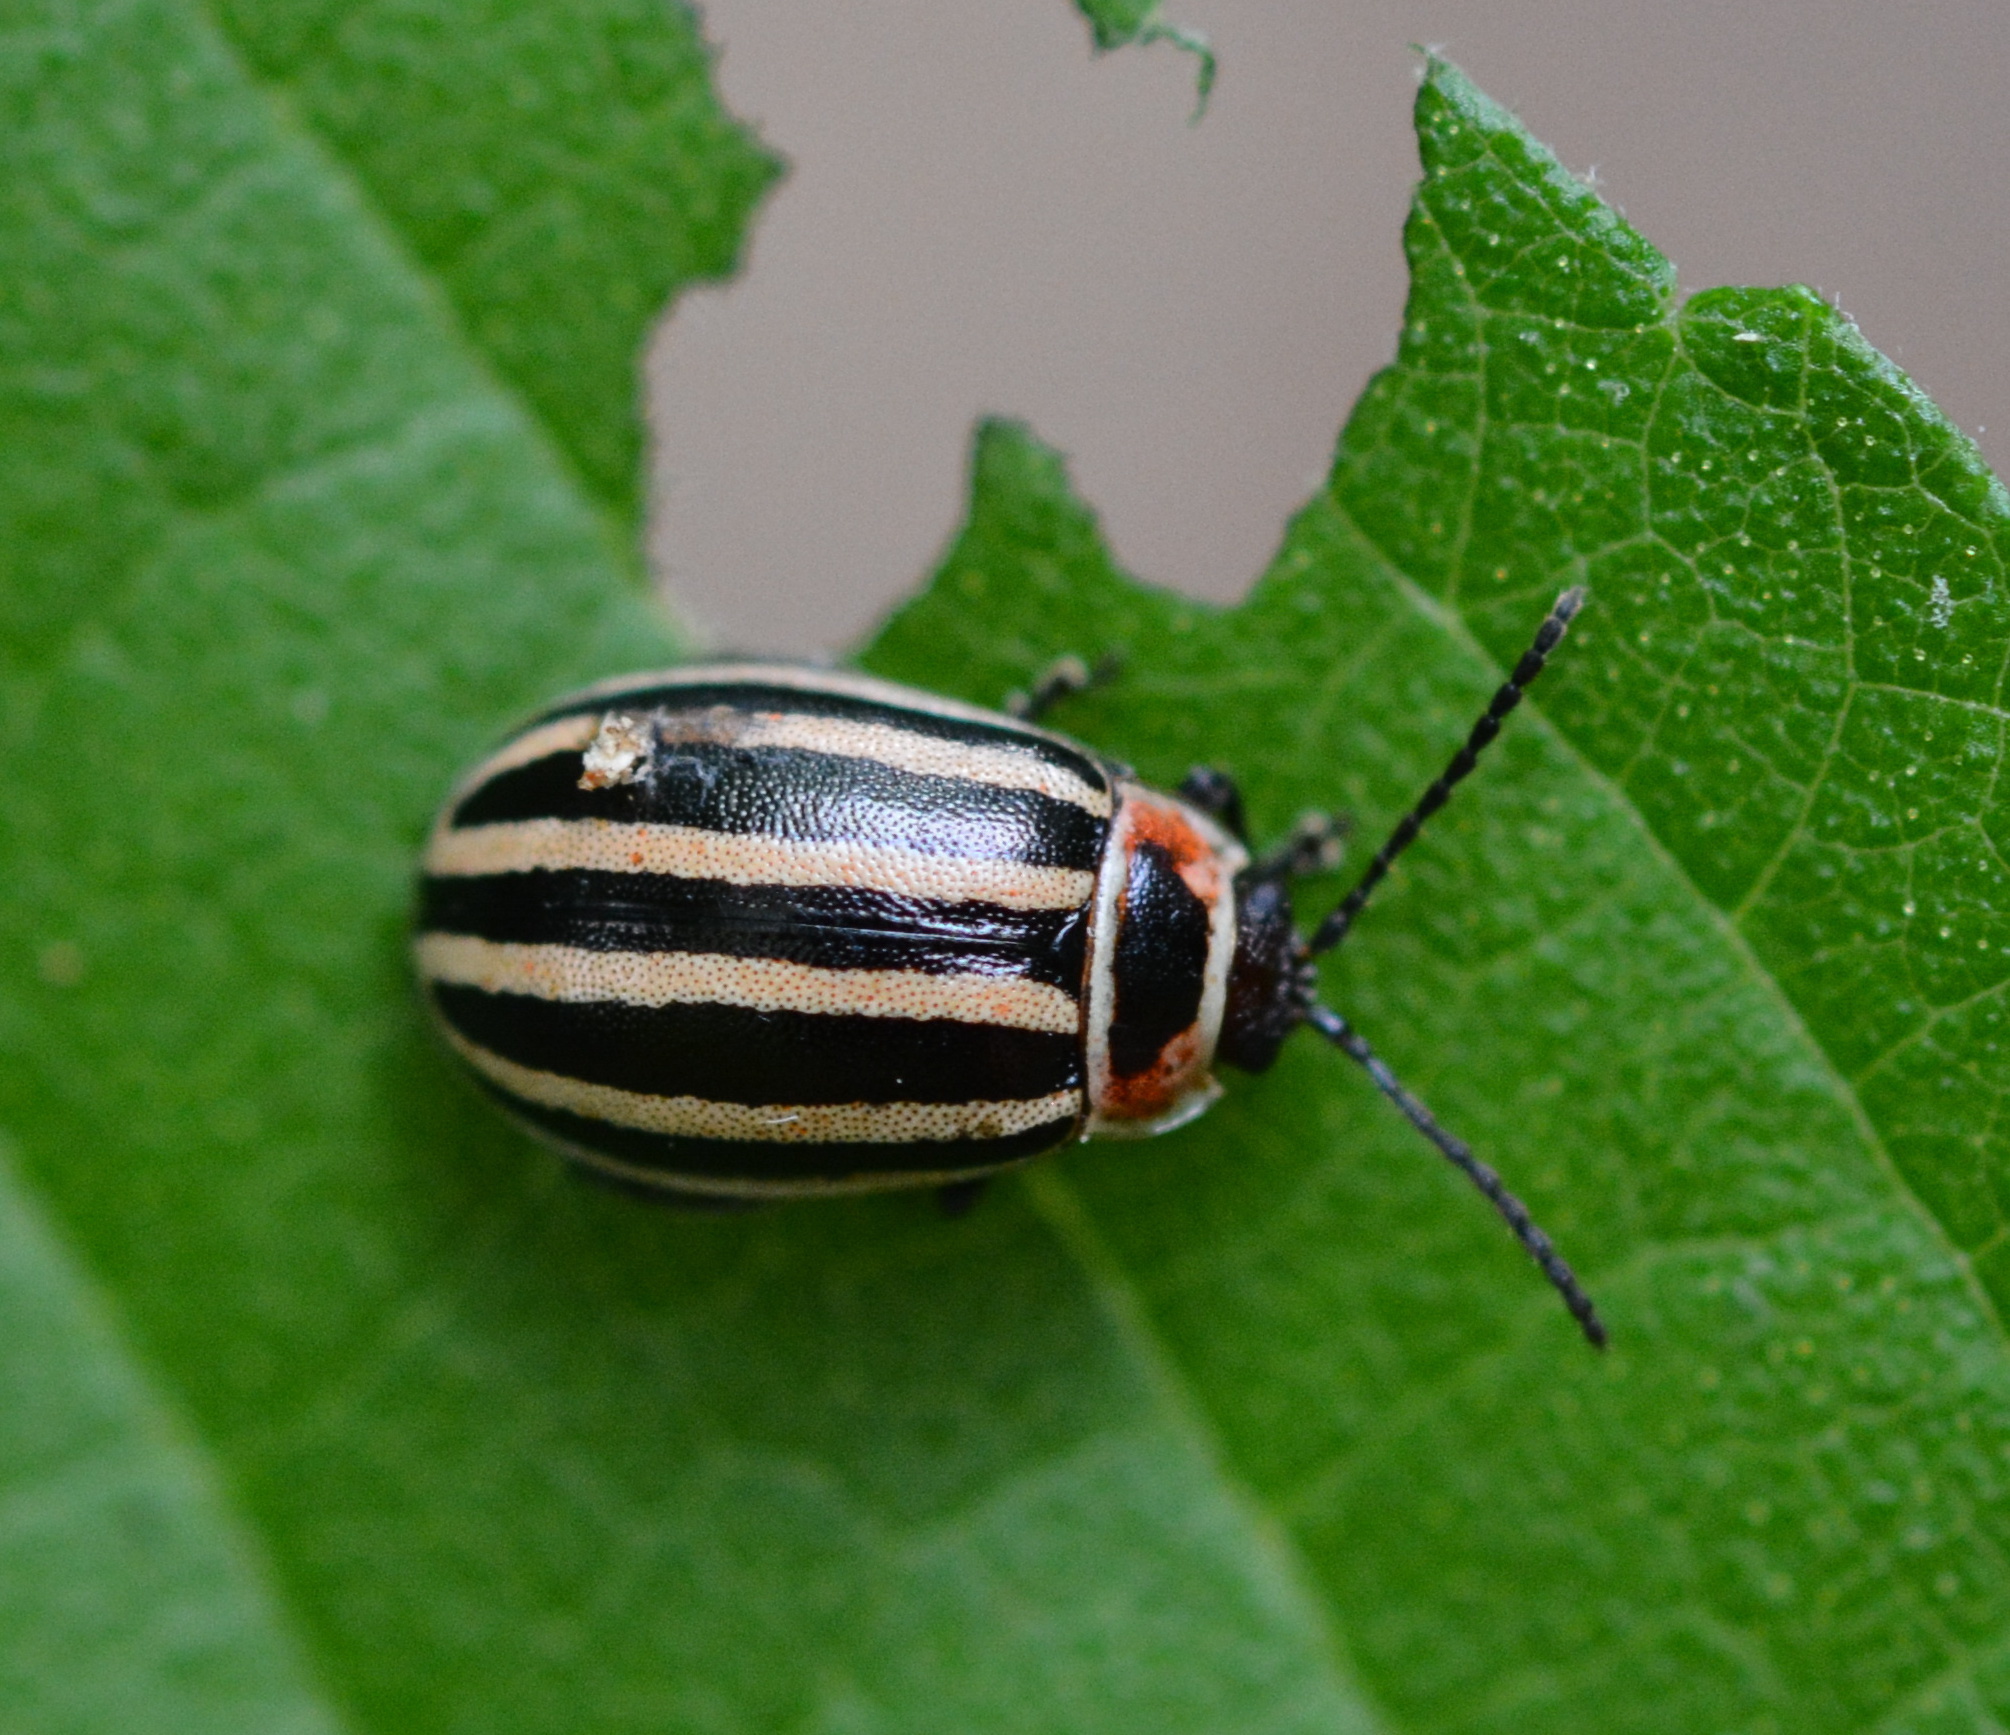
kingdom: Animalia
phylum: Arthropoda
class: Insecta
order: Coleoptera
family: Chrysomelidae
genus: Kuschelina
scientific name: Kuschelina petaurista
